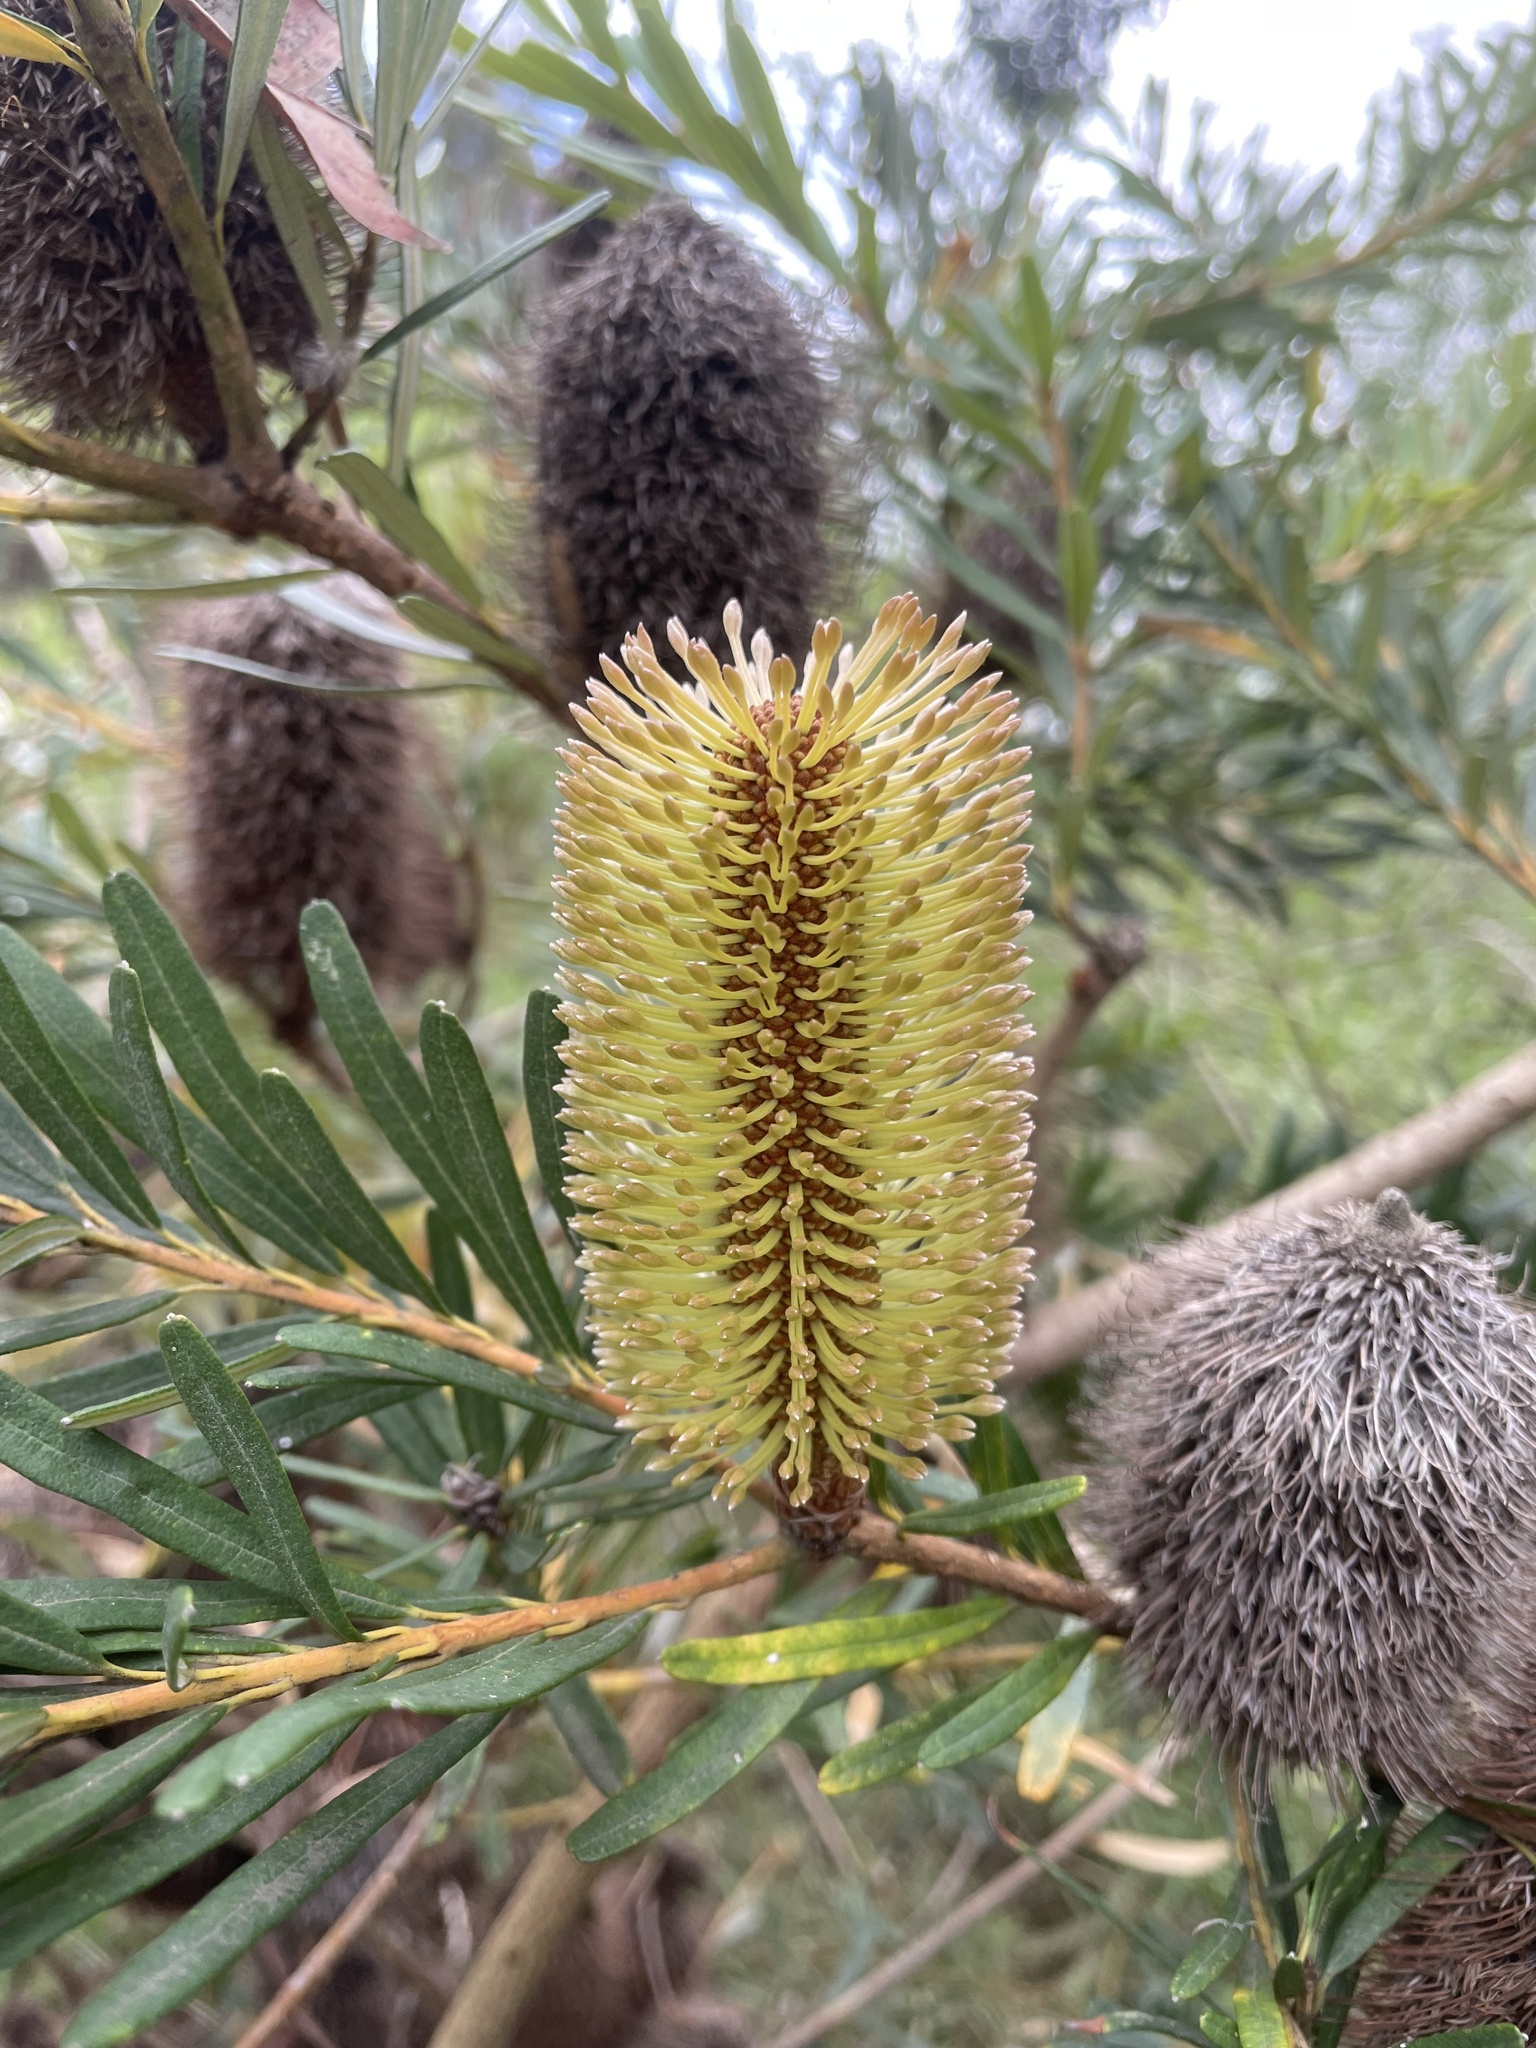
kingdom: Plantae
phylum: Tracheophyta
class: Magnoliopsida
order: Proteales
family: Proteaceae
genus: Banksia
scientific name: Banksia marginata
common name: Silver banksia
